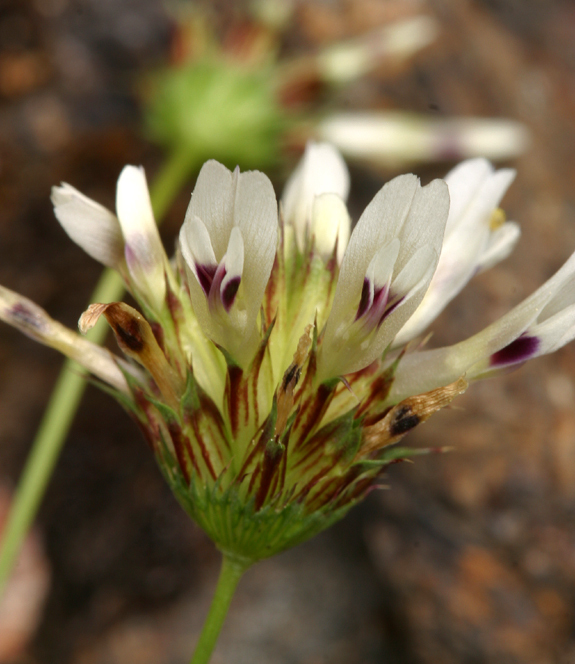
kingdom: Plantae
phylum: Tracheophyta
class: Magnoliopsida
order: Fabales
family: Fabaceae
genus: Trifolium
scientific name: Trifolium willdenovii
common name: Tomcat clover
